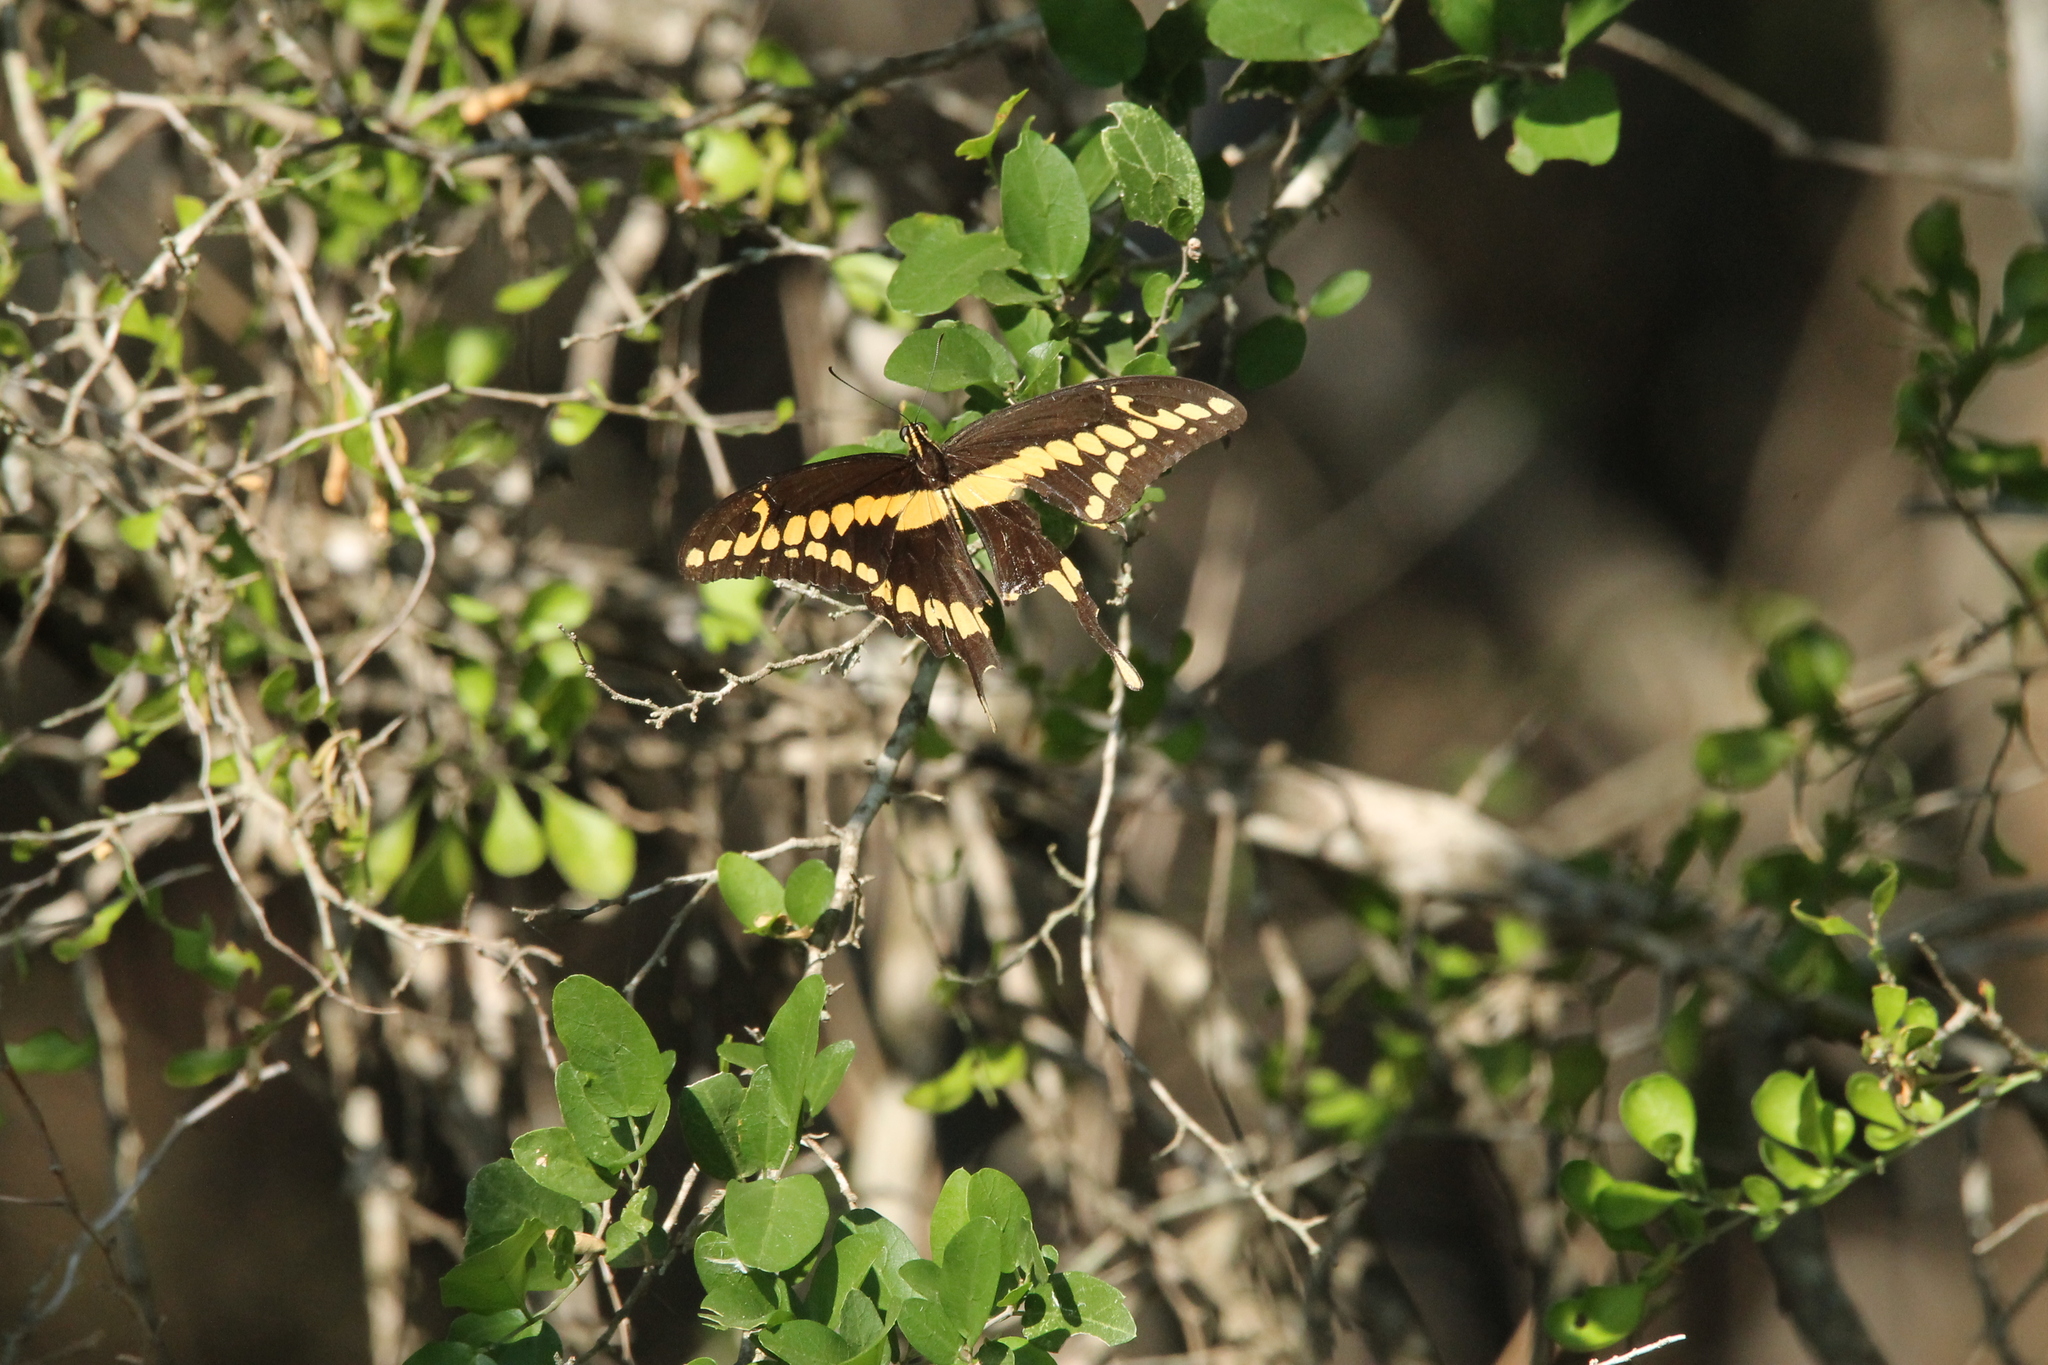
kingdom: Animalia
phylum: Arthropoda
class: Insecta
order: Lepidoptera
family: Papilionidae
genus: Papilio
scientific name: Papilio rumiko
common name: Western giant swallowtail
